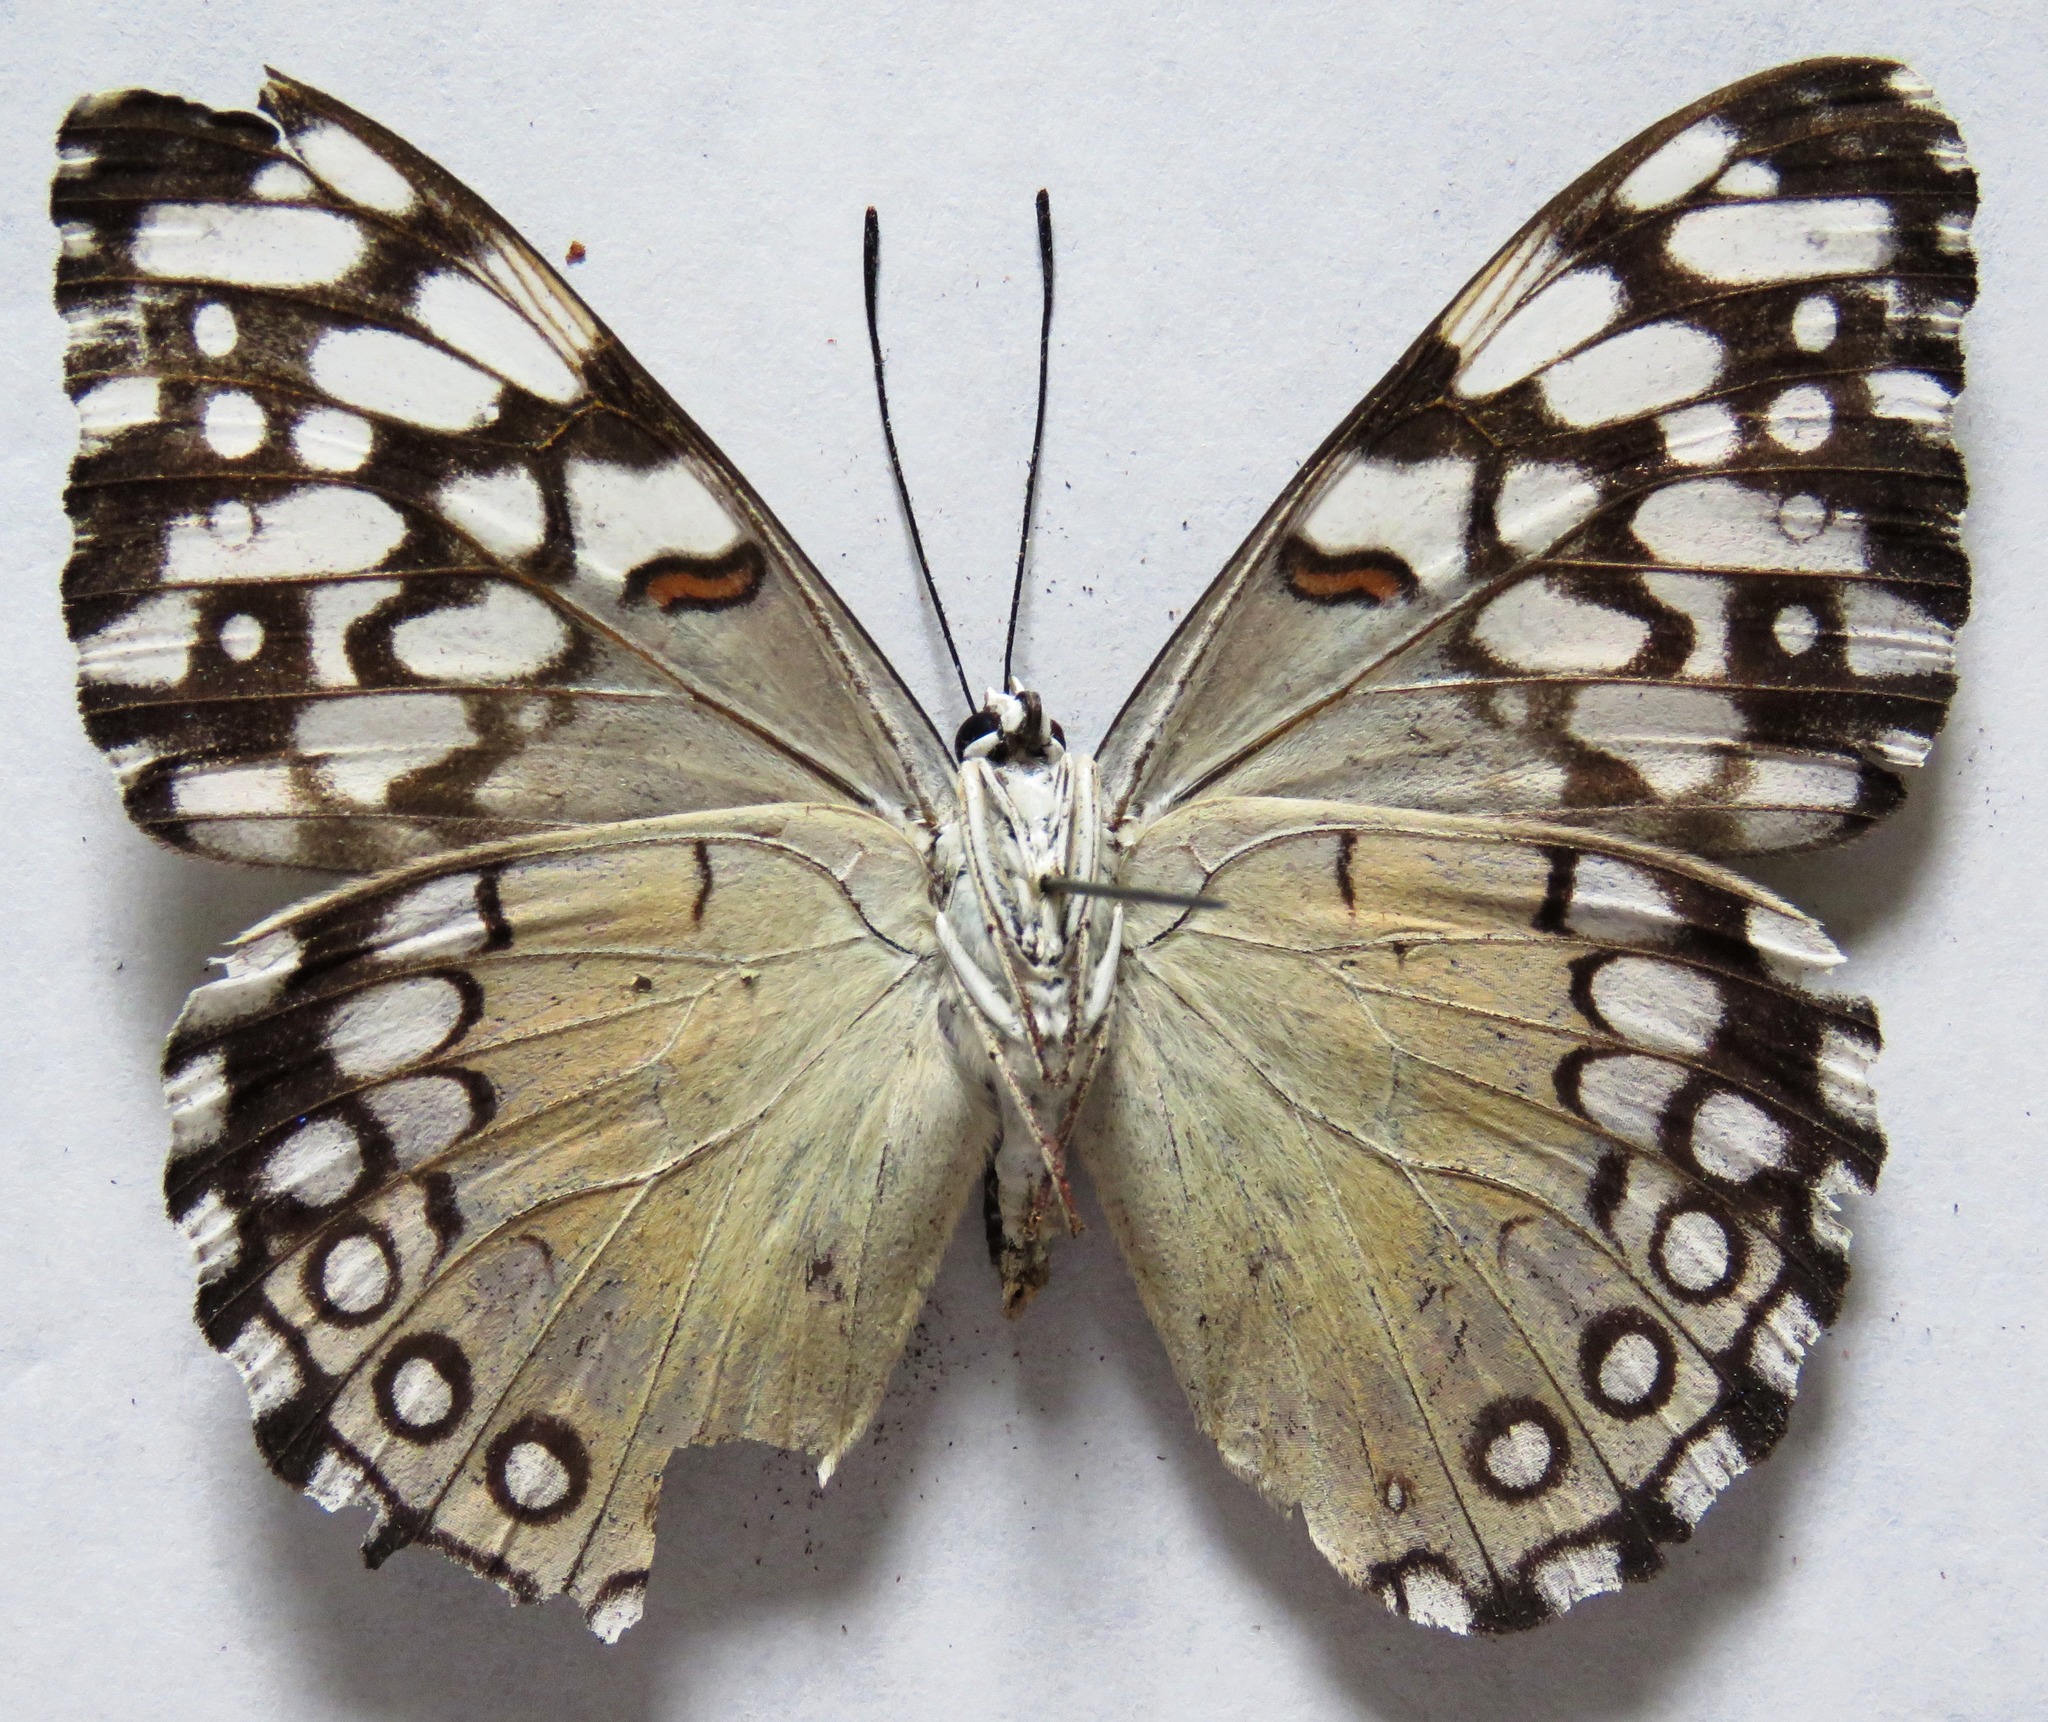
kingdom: Animalia
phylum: Arthropoda
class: Insecta
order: Lepidoptera
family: Nymphalidae
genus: Hamadryas
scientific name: Hamadryas feronia
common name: Variable cracker
